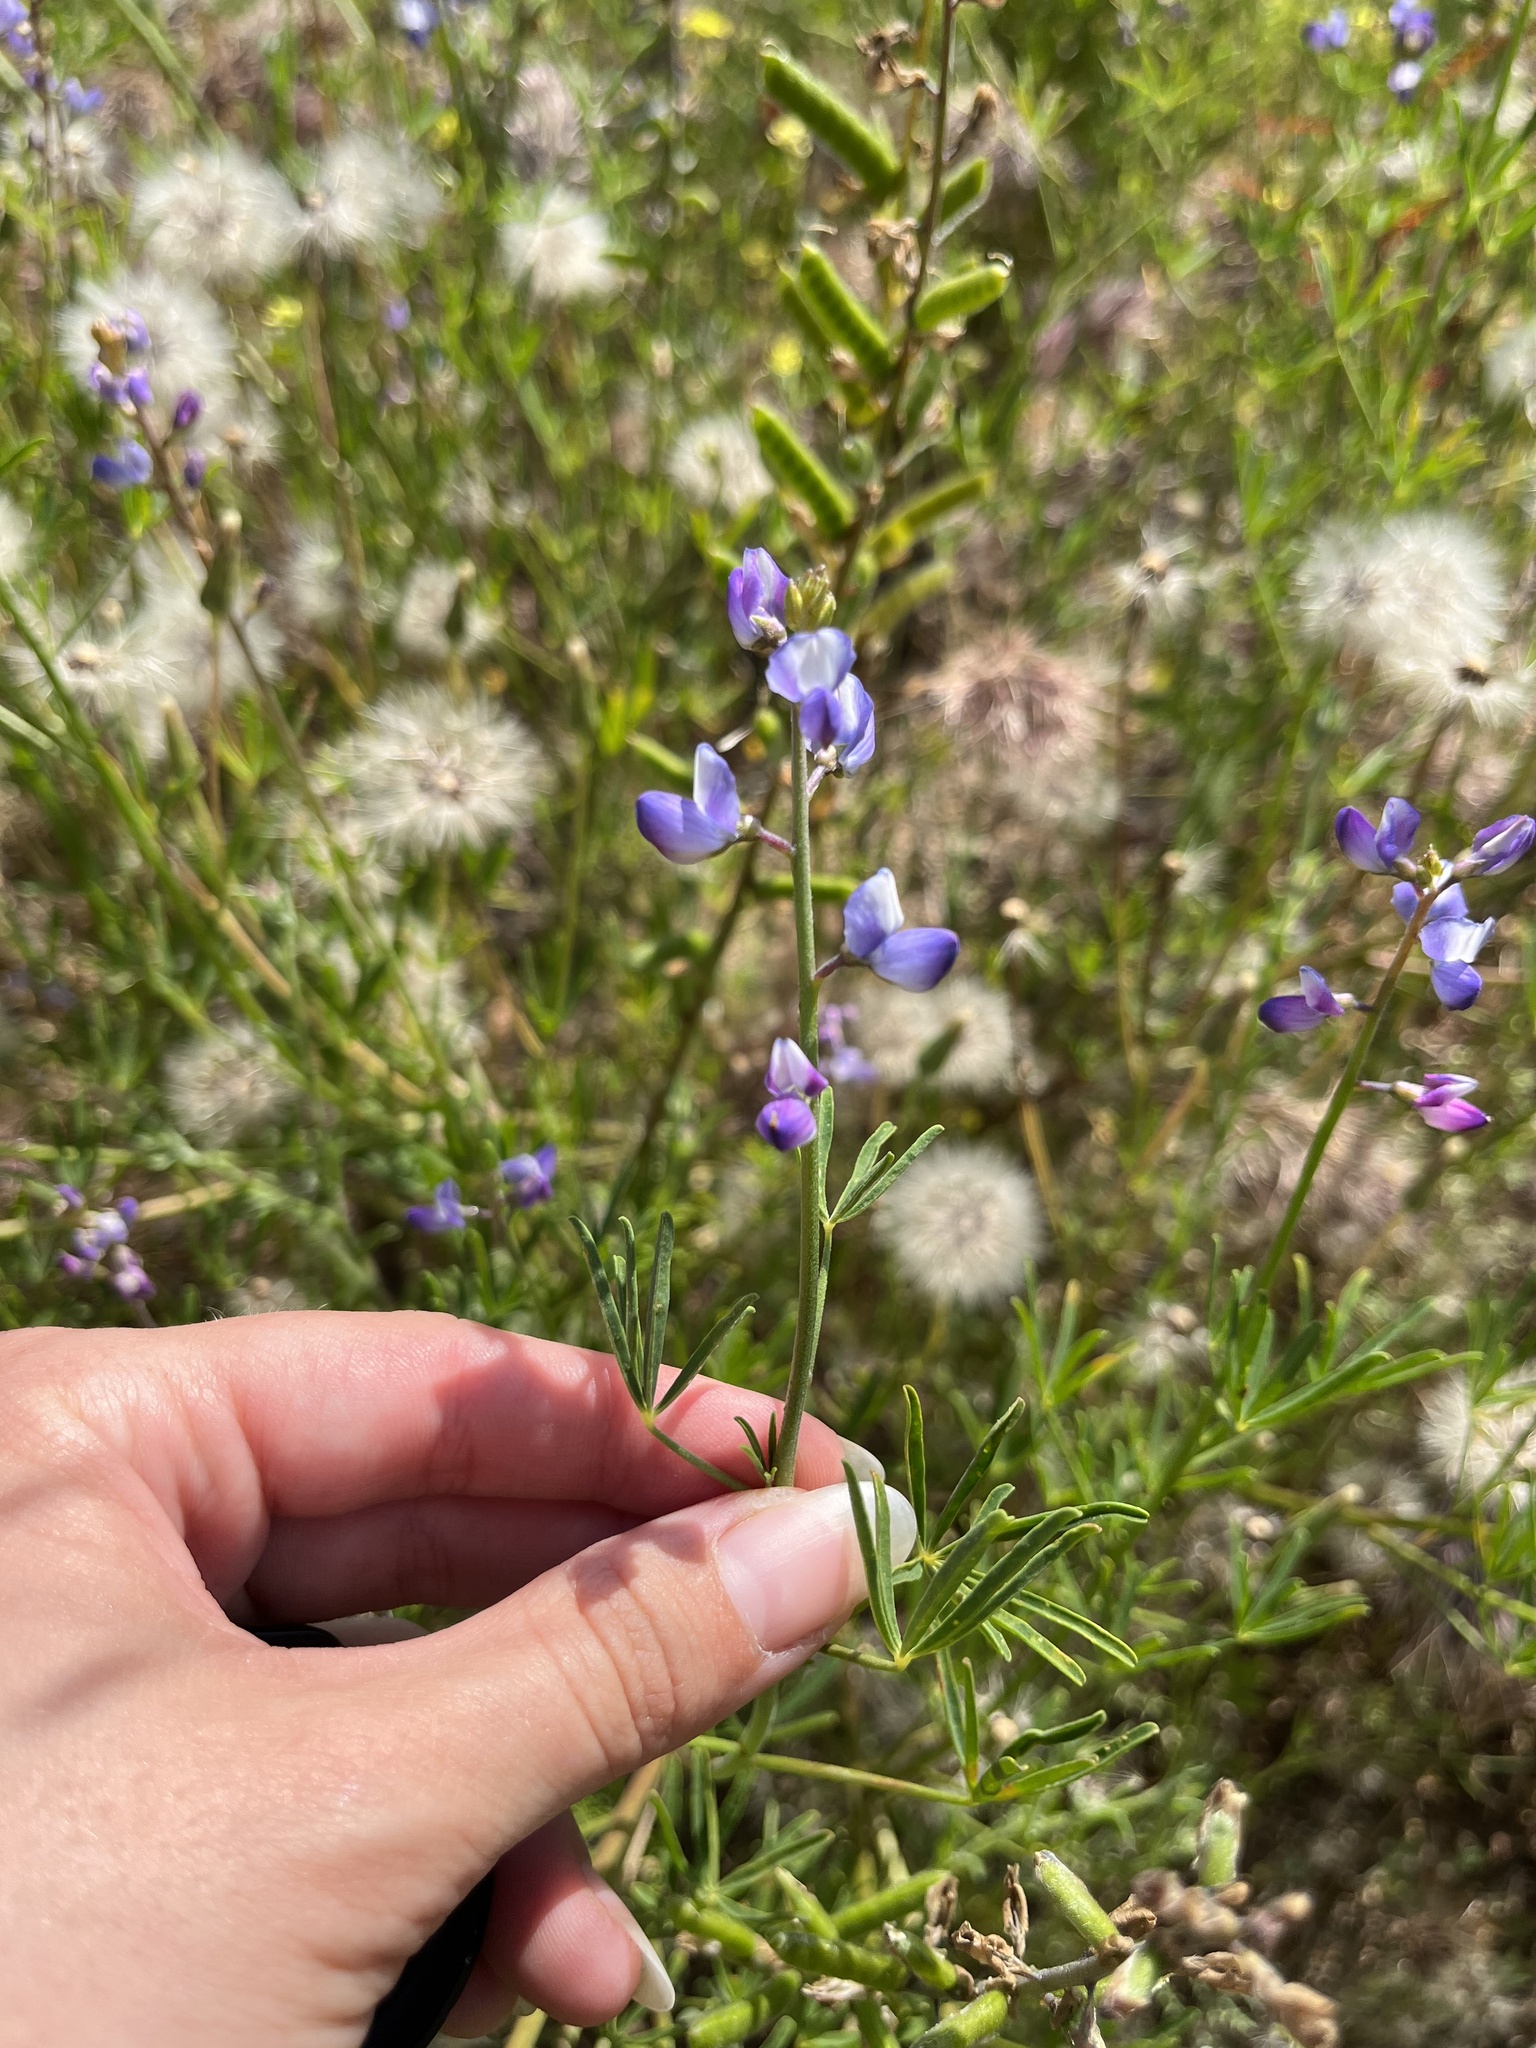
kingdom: Plantae
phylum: Tracheophyta
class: Magnoliopsida
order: Fabales
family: Fabaceae
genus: Lupinus
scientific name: Lupinus truncatus
